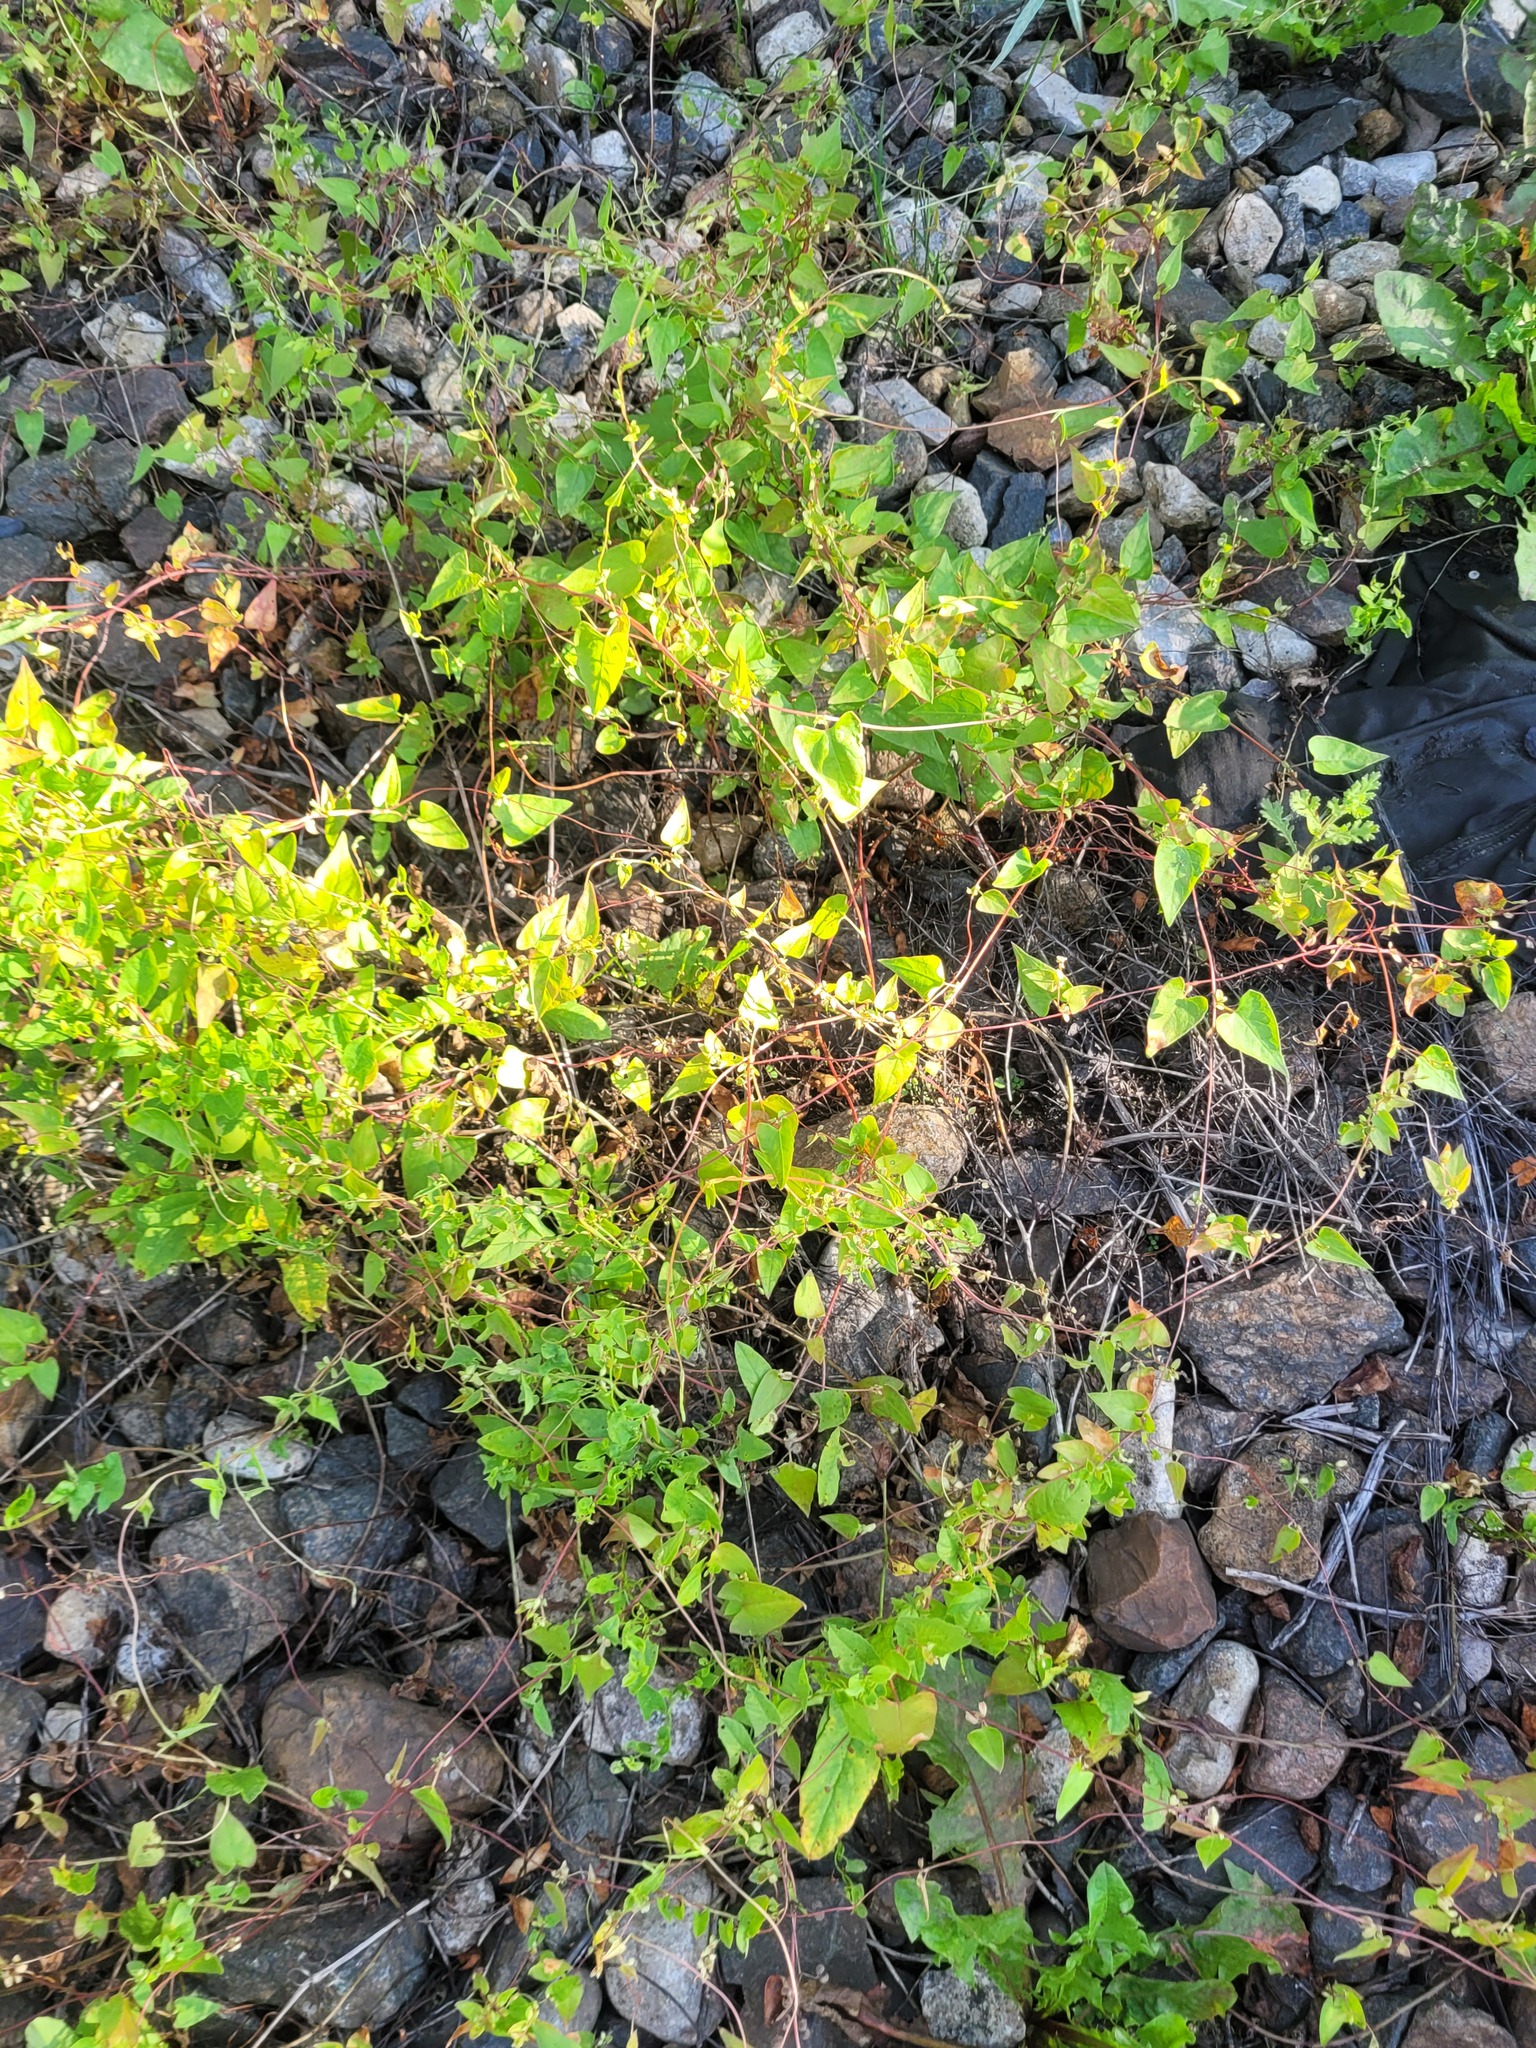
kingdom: Plantae
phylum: Tracheophyta
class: Magnoliopsida
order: Caryophyllales
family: Polygonaceae
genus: Fallopia
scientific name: Fallopia convolvulus
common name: Black bindweed
